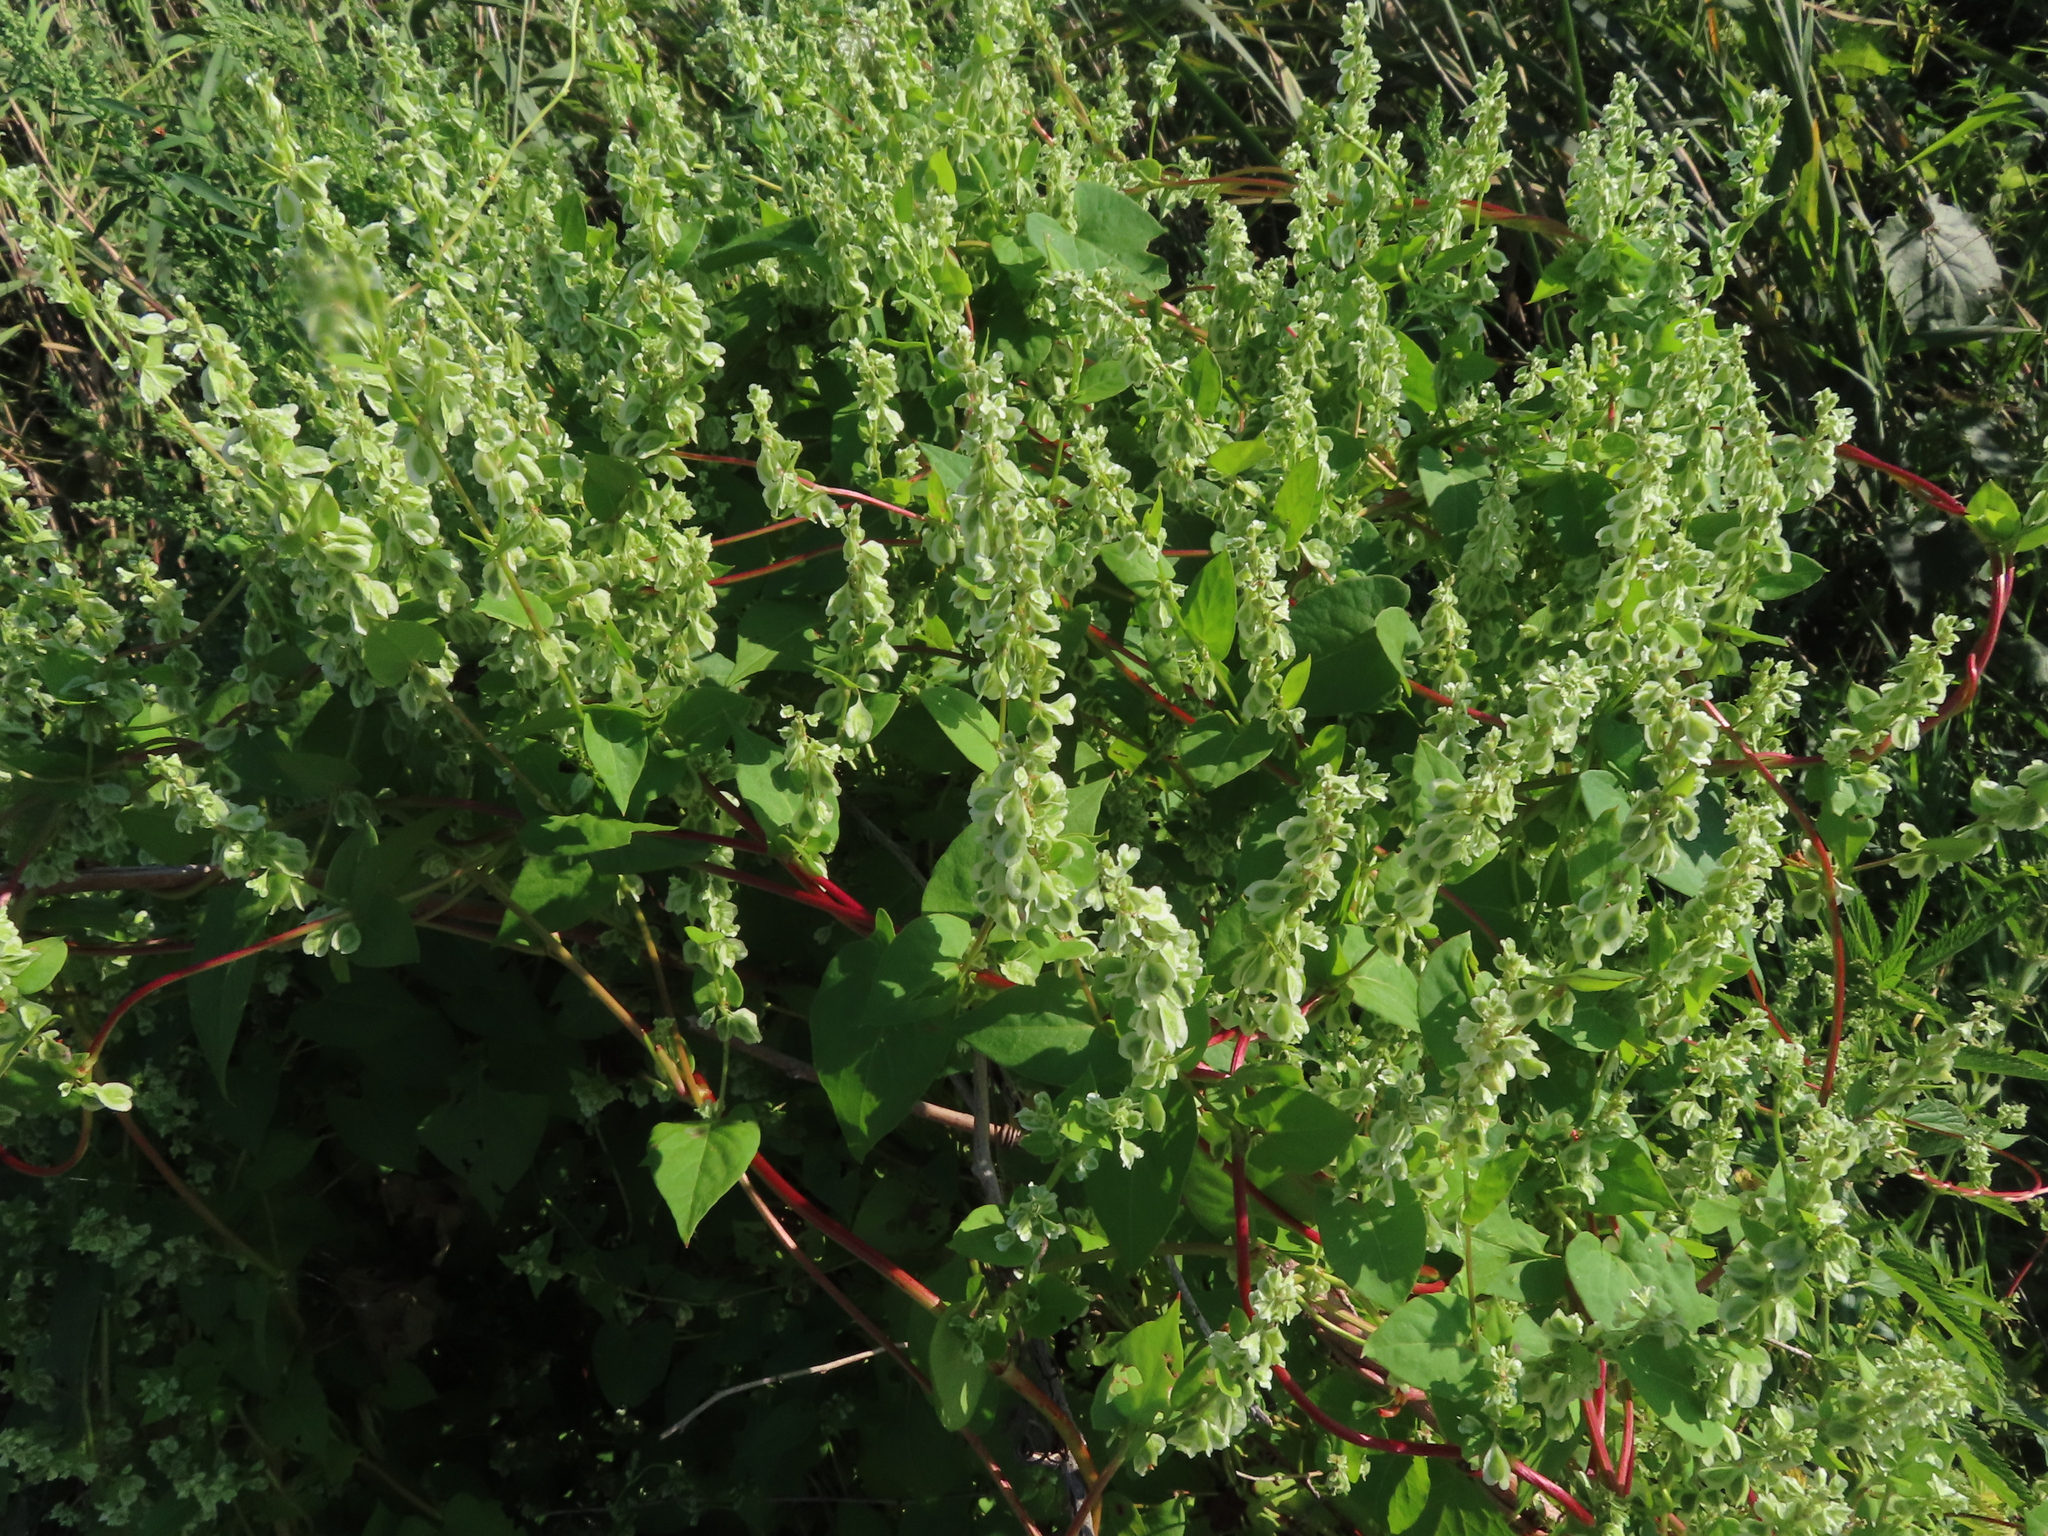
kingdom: Plantae
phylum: Tracheophyta
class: Magnoliopsida
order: Caryophyllales
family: Polygonaceae
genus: Fallopia
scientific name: Fallopia scandens
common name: Climbing false buckwheat
